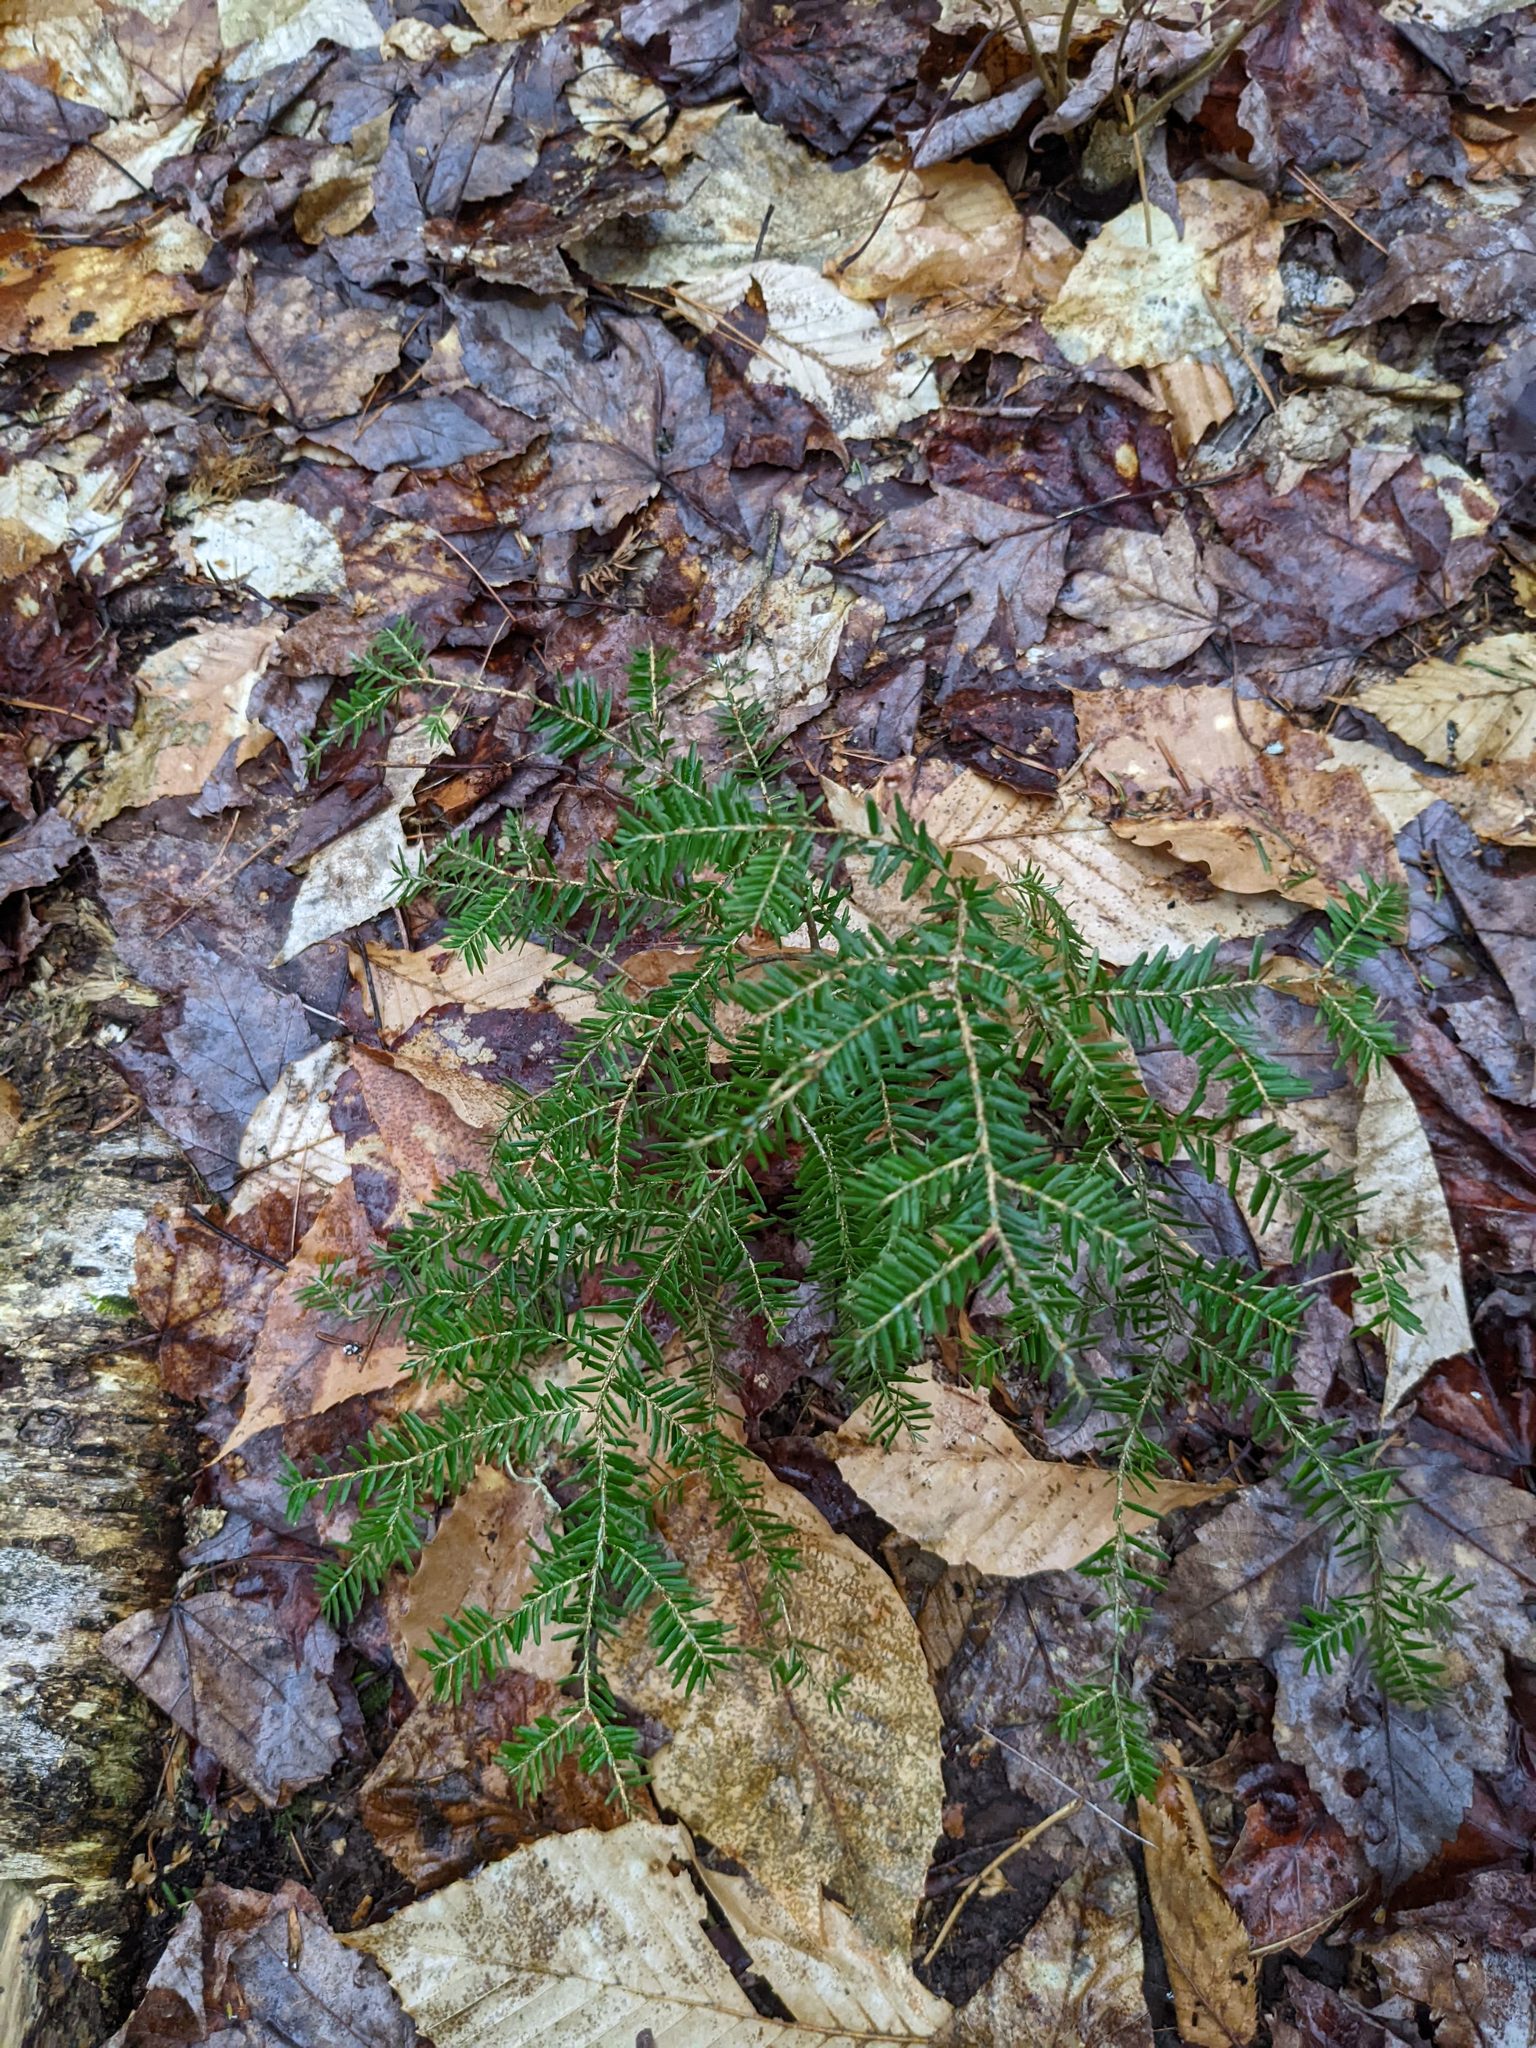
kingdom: Plantae
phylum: Tracheophyta
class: Pinopsida
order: Pinales
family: Pinaceae
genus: Tsuga
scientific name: Tsuga canadensis
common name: Eastern hemlock
